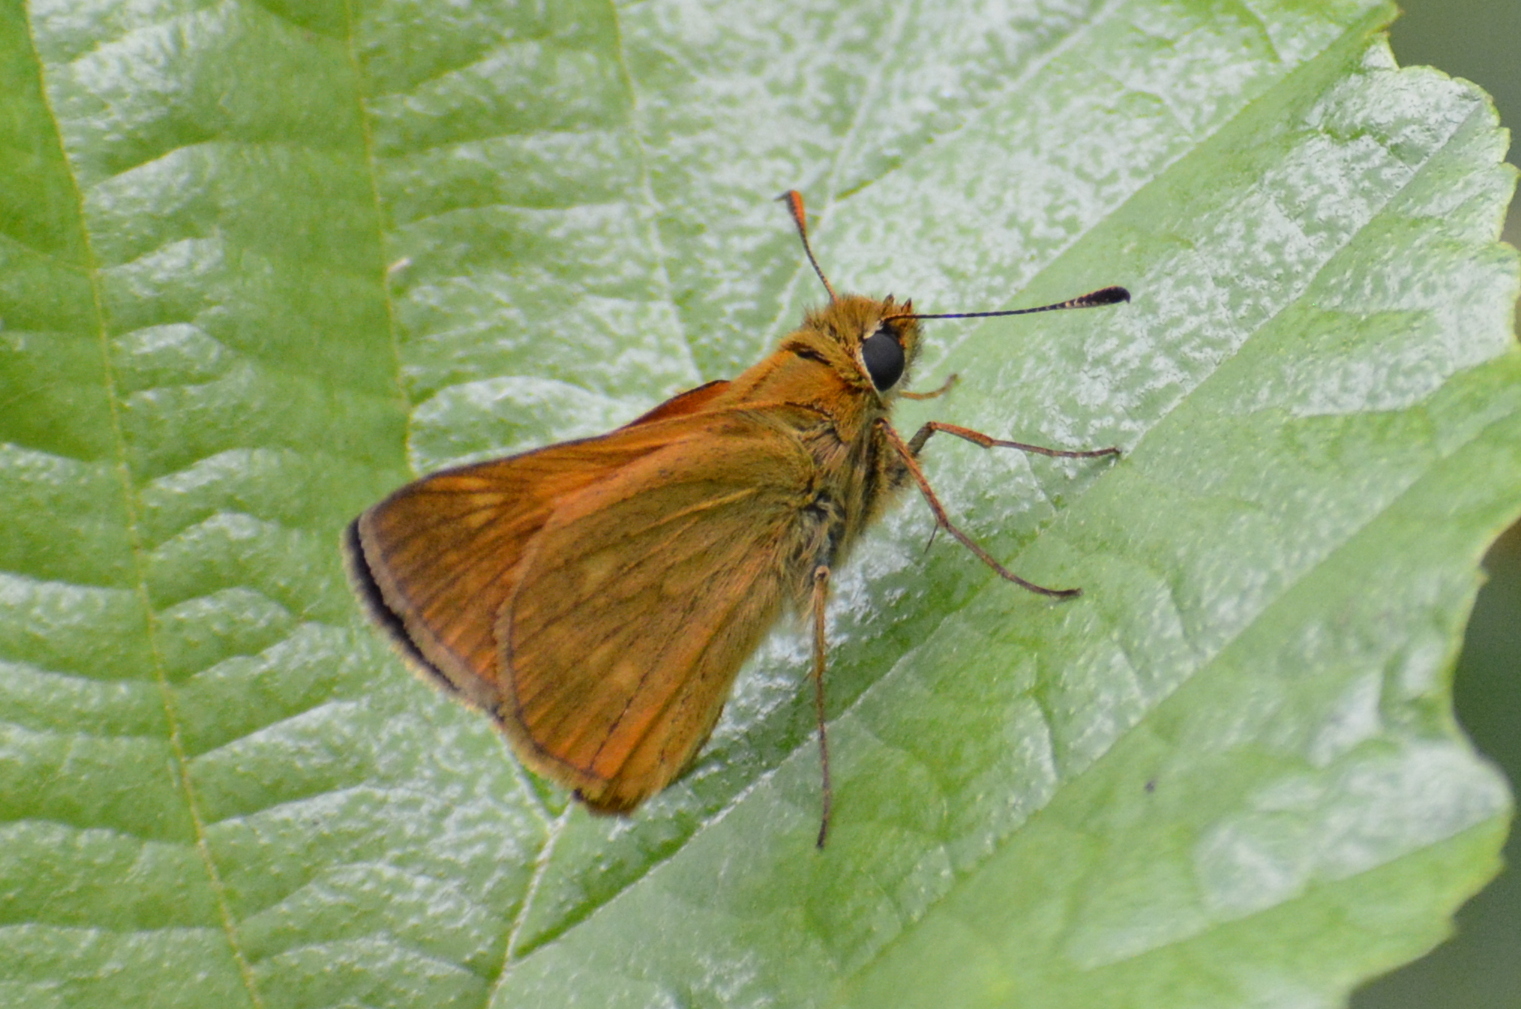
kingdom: Animalia
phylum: Arthropoda
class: Insecta
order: Lepidoptera
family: Hesperiidae
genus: Ochlodes
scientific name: Ochlodes venata
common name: Large skipper
